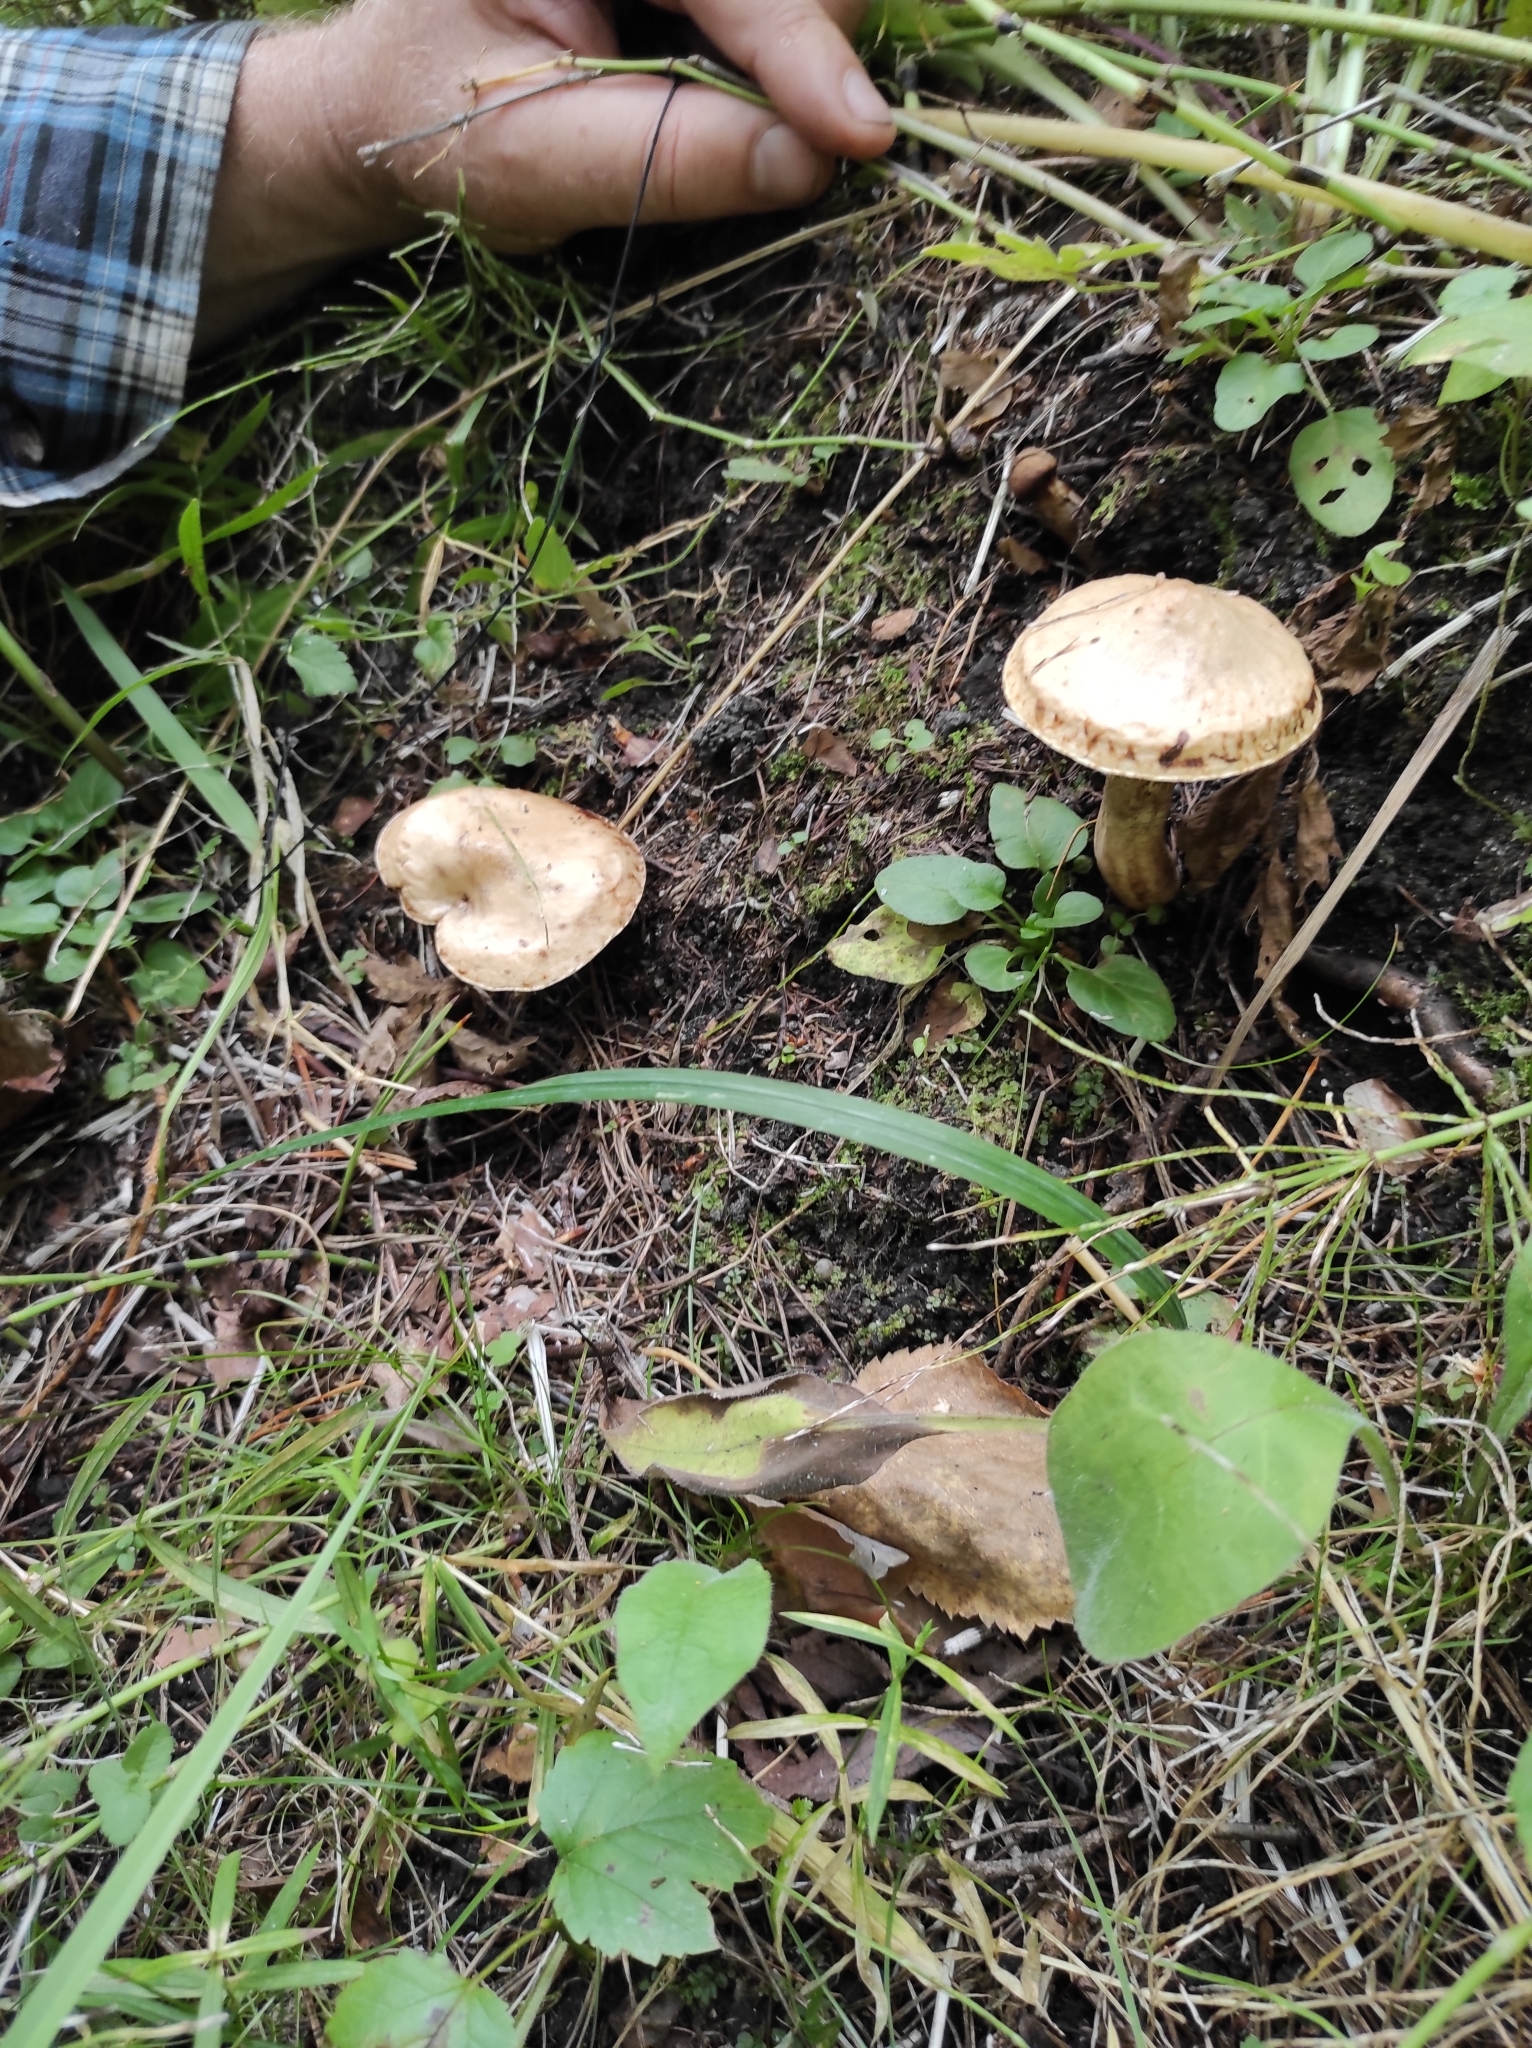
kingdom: Fungi
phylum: Basidiomycota
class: Agaricomycetes
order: Boletales
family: Suillaceae
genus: Suillus
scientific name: Suillus viscidus
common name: Sticky bolete
